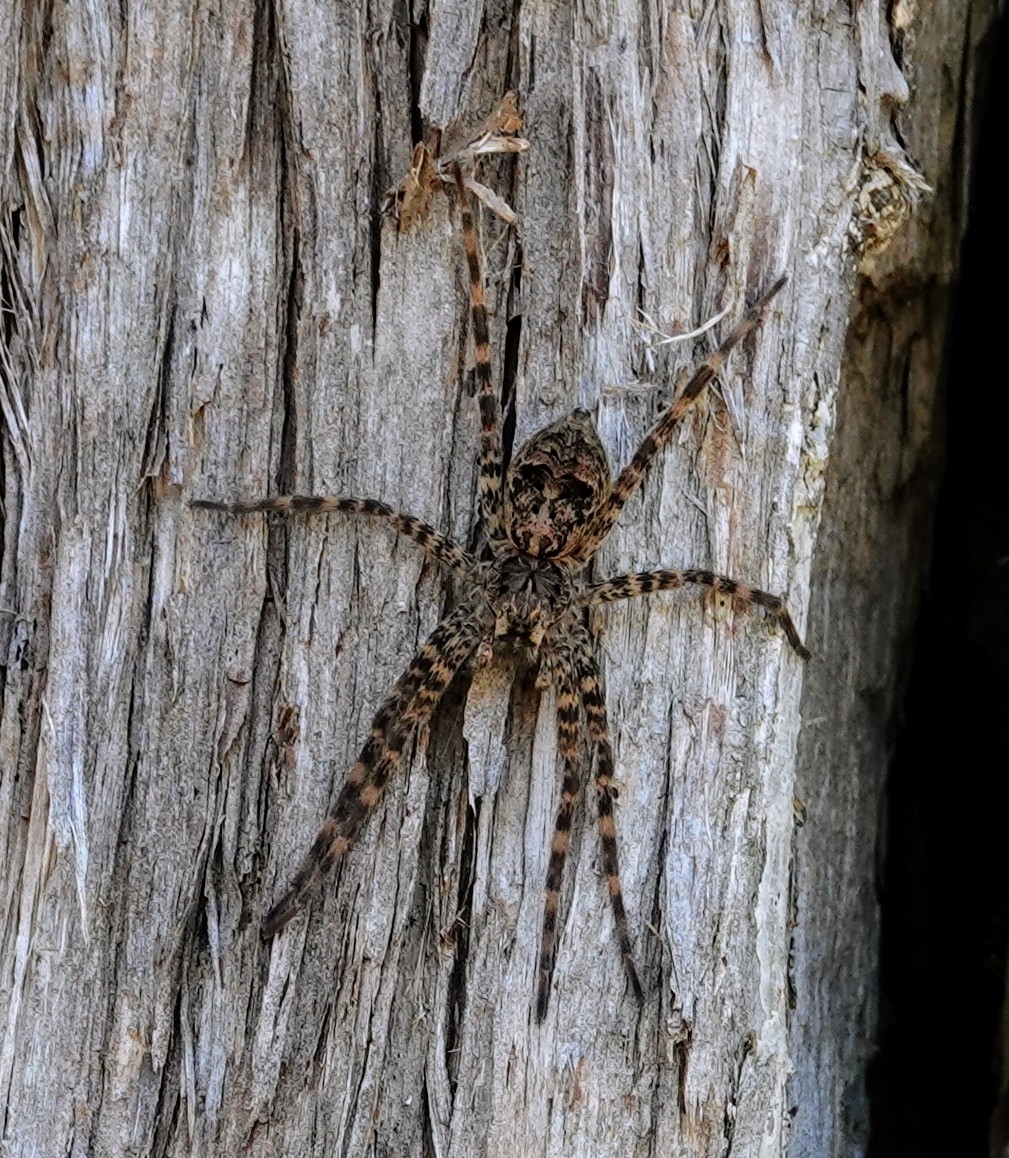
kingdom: Animalia
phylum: Arthropoda
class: Arachnida
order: Araneae
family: Pisauridae
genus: Dolomedes
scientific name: Dolomedes tenebrosus
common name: Dark fishing spider
